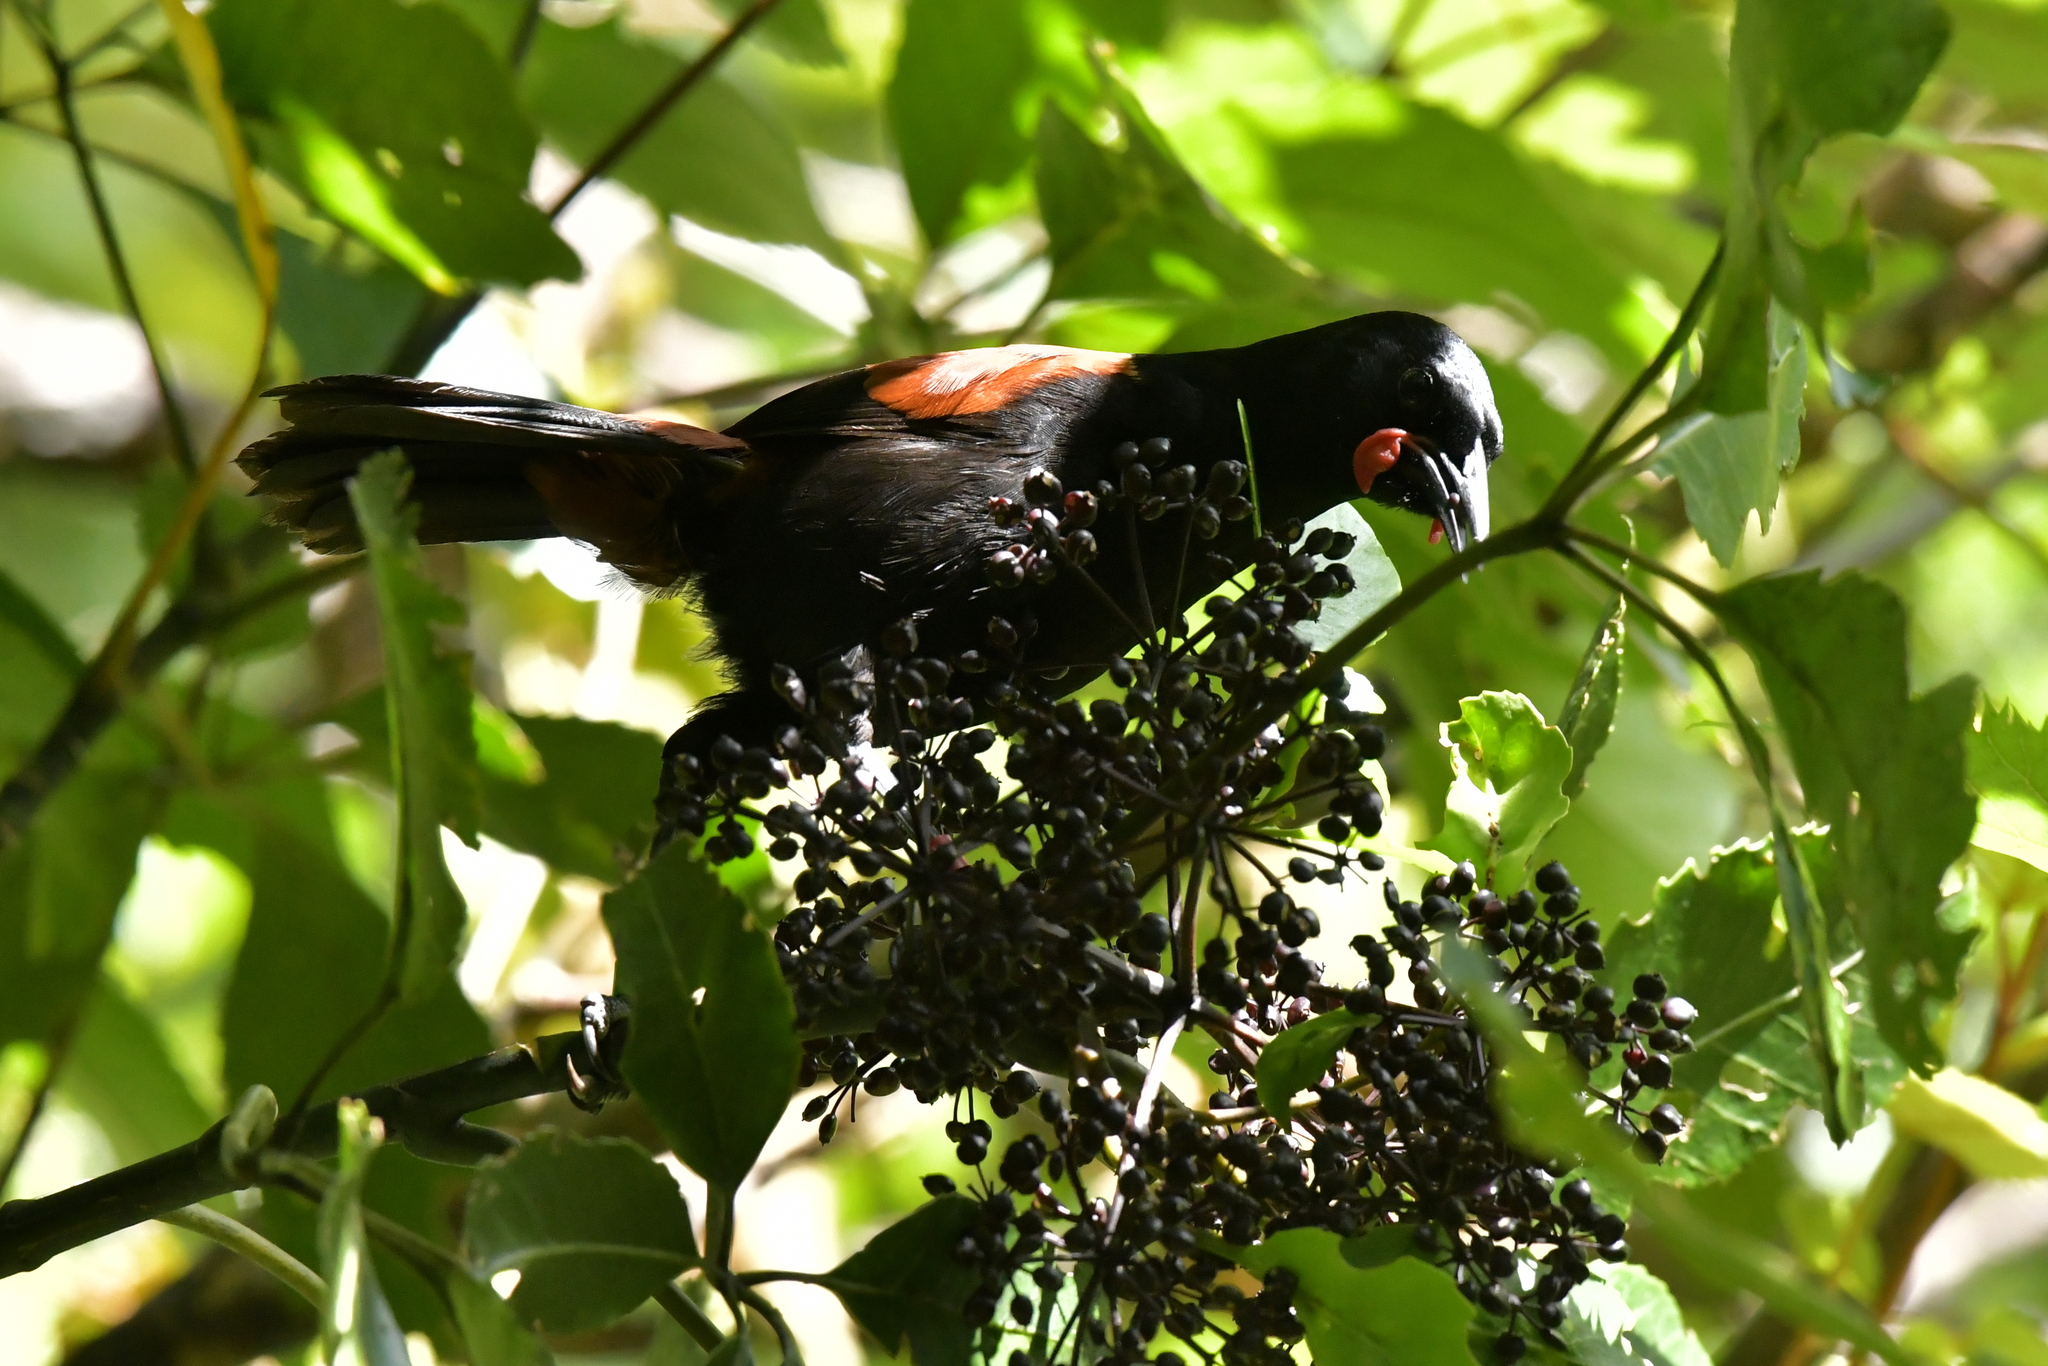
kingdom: Animalia
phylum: Chordata
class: Aves
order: Passeriformes
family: Callaeatidae
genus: Philesturnus
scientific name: Philesturnus carunculatus
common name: South island saddleback
